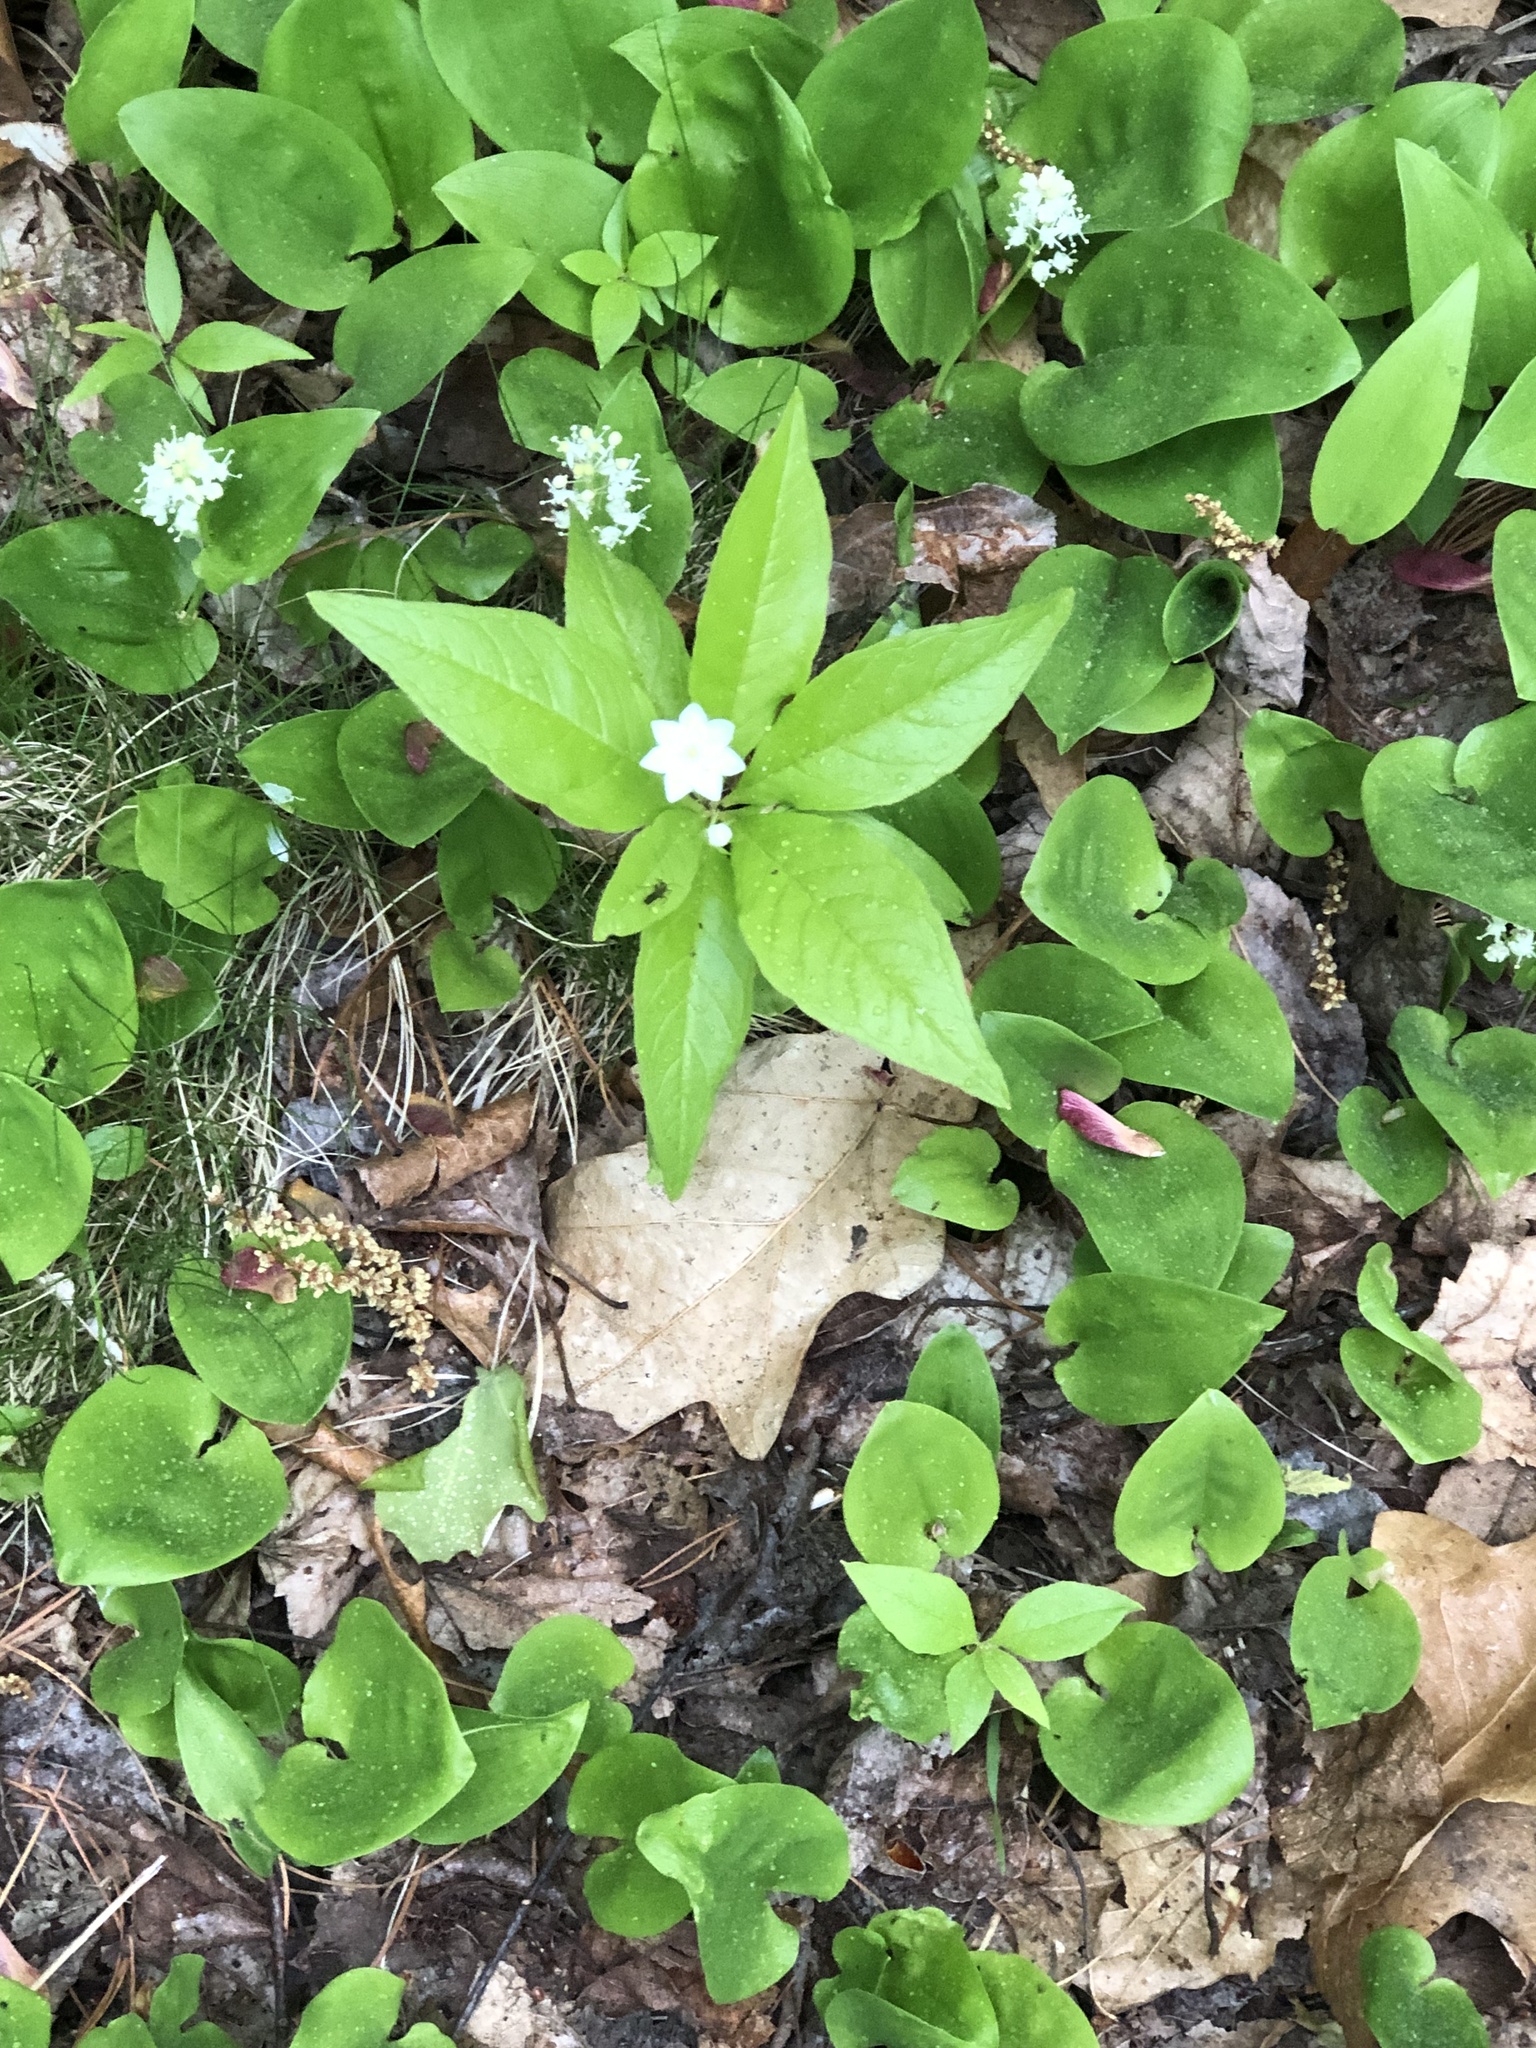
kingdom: Plantae
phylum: Tracheophyta
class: Magnoliopsida
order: Ericales
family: Primulaceae
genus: Lysimachia
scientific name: Lysimachia borealis
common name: American starflower
